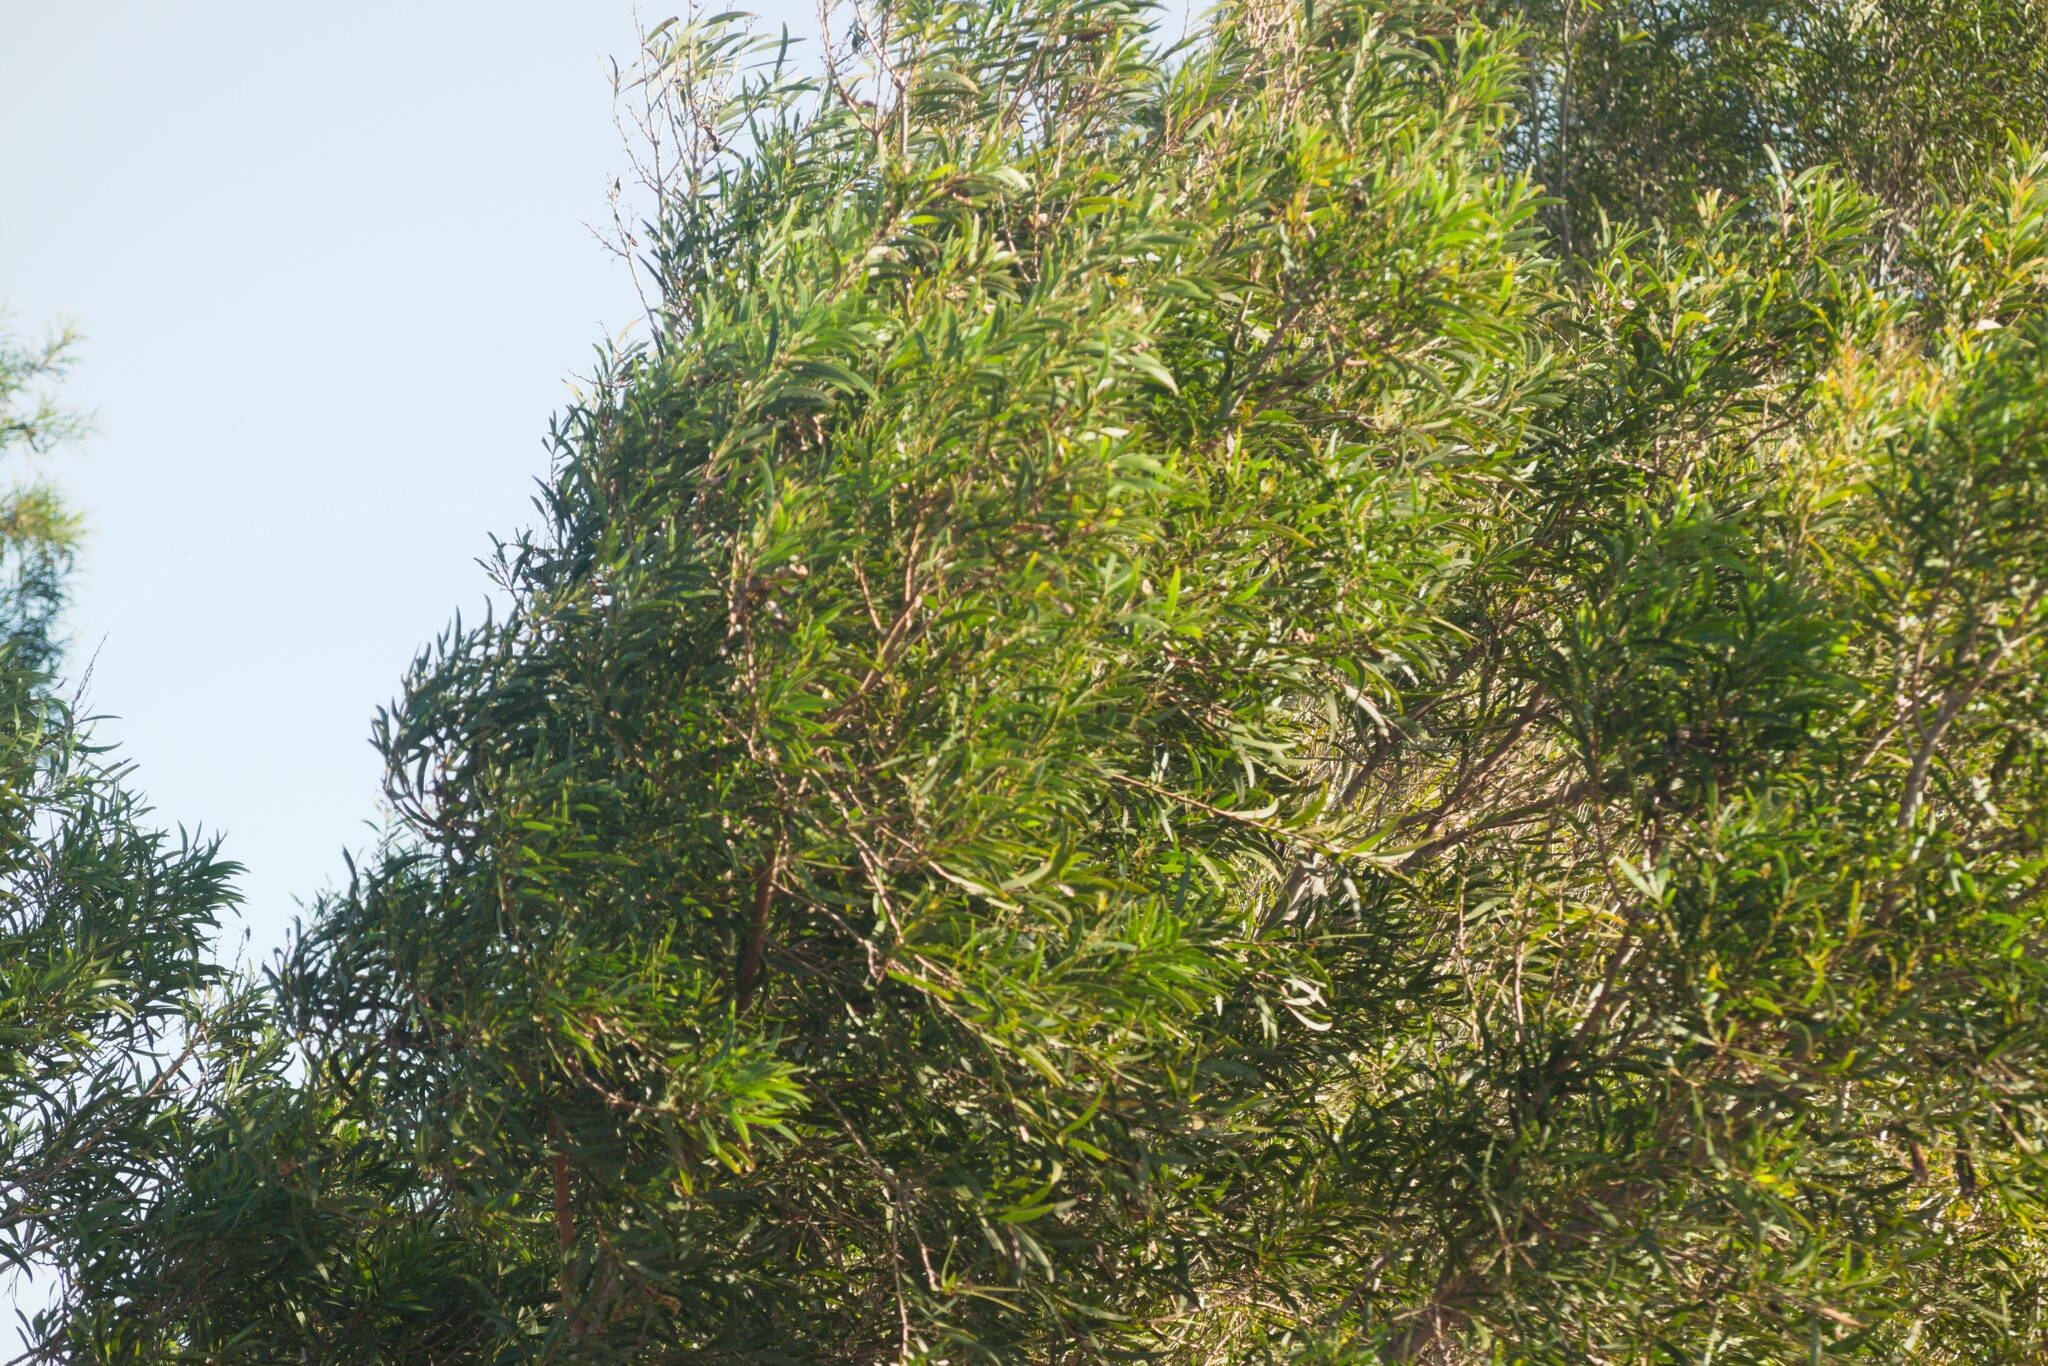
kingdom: Plantae
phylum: Tracheophyta
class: Magnoliopsida
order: Fabales
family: Fabaceae
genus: Acacia
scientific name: Acacia confusa
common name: Formosan koa
